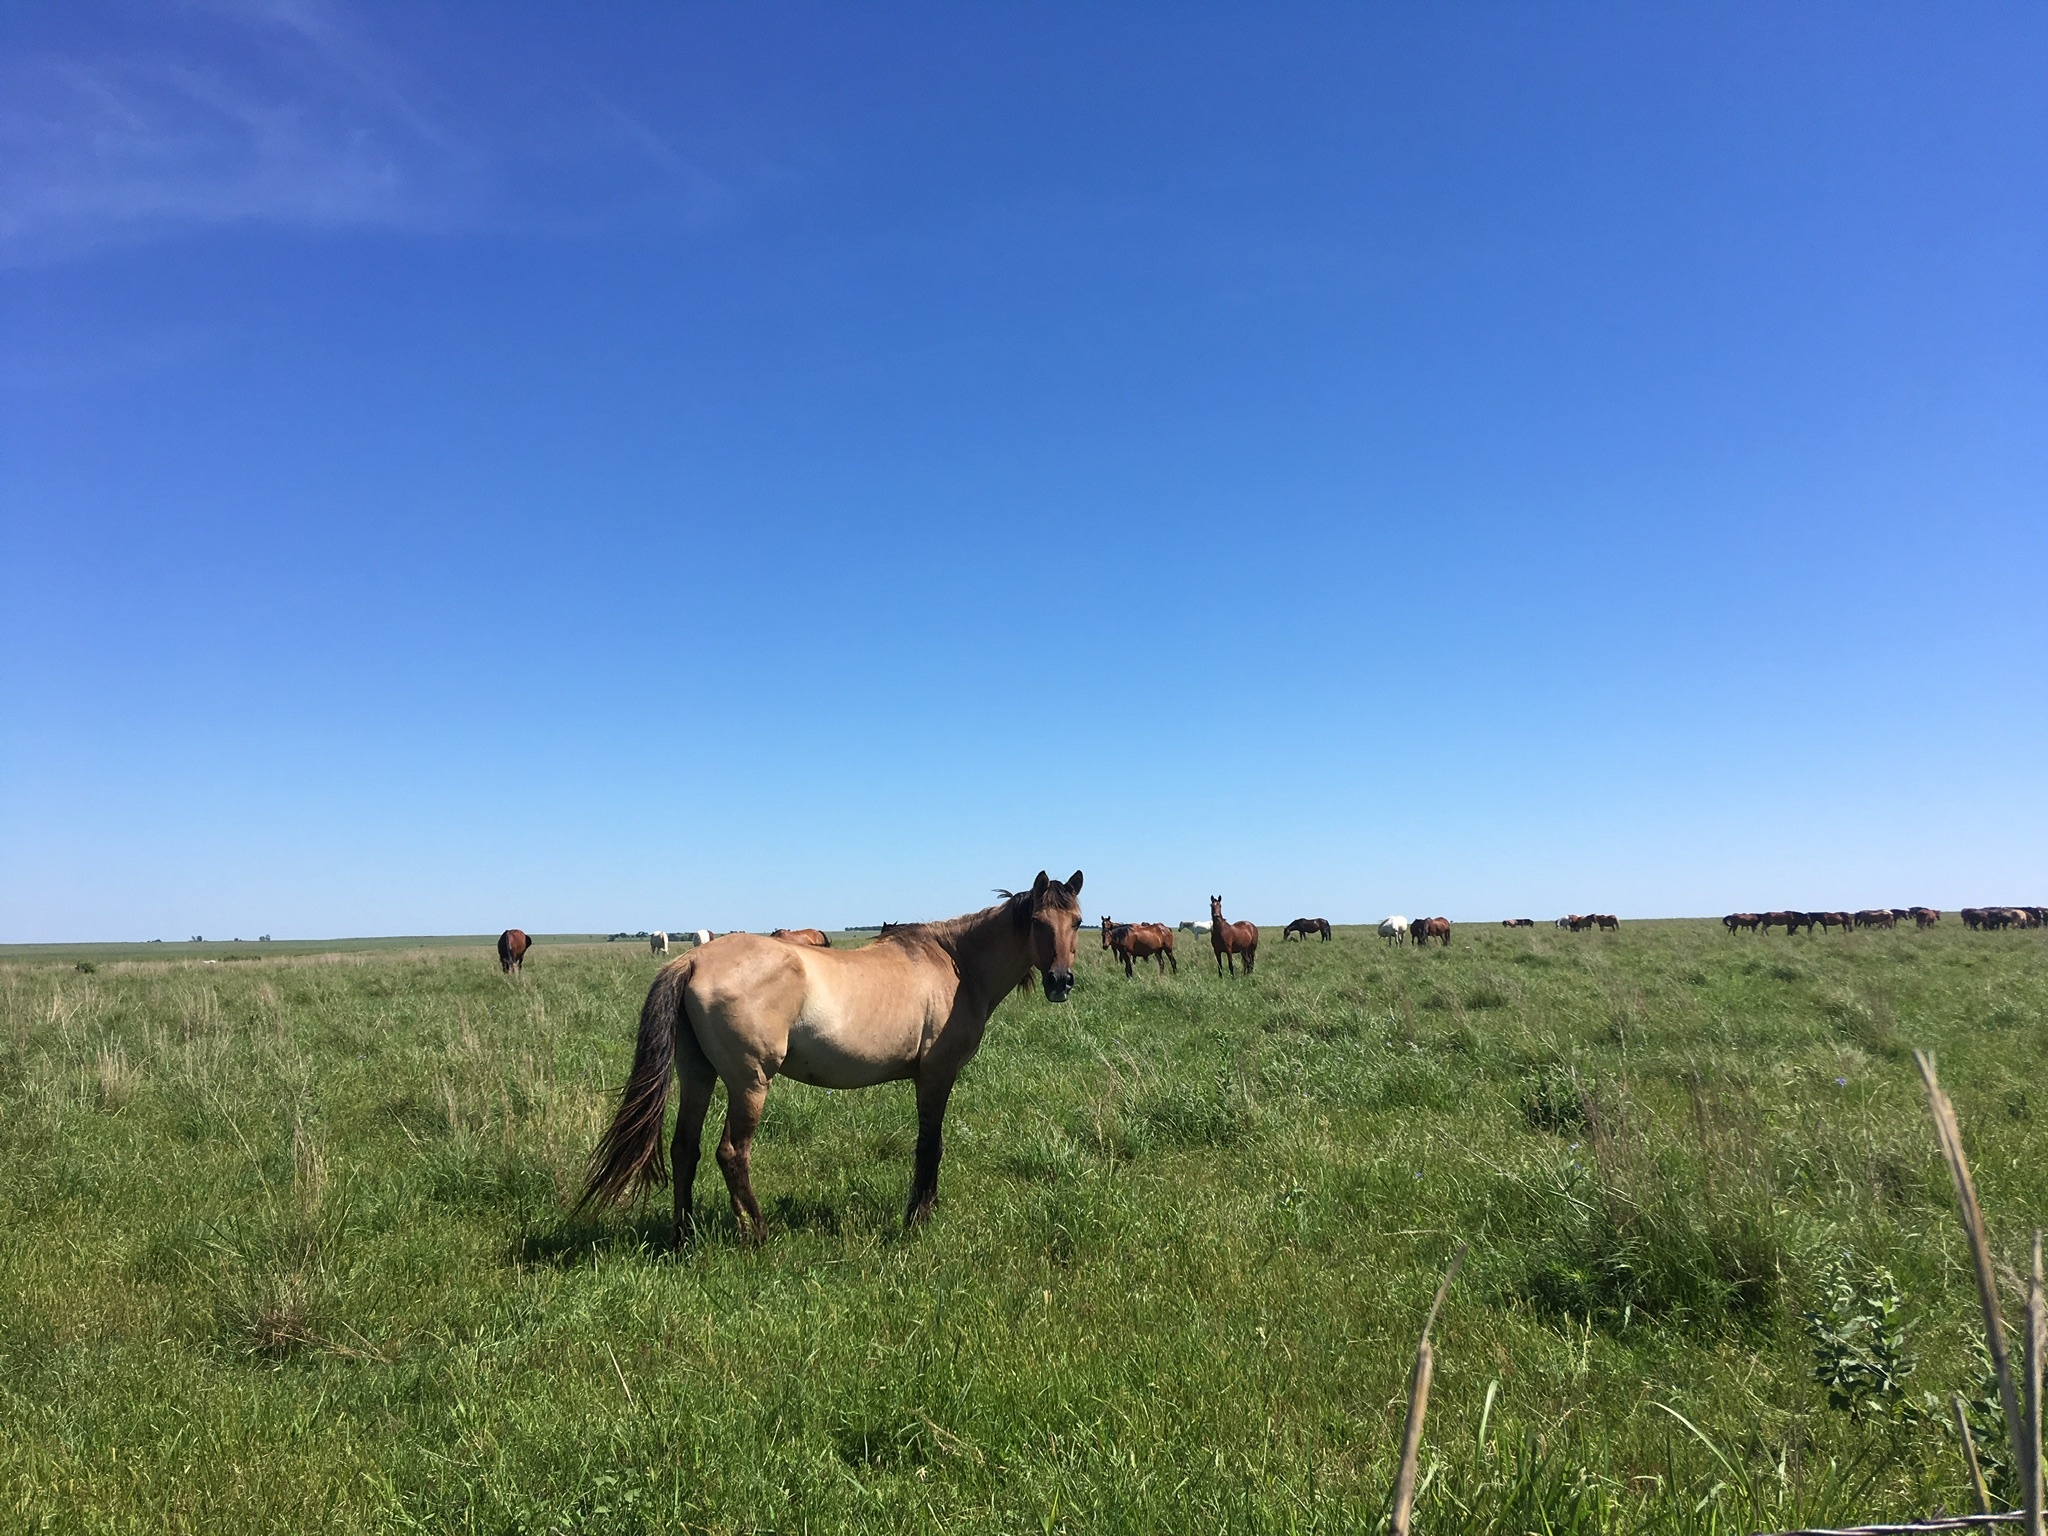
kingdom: Animalia
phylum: Chordata
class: Mammalia
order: Perissodactyla
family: Equidae
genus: Equus
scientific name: Equus caballus
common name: Horse
